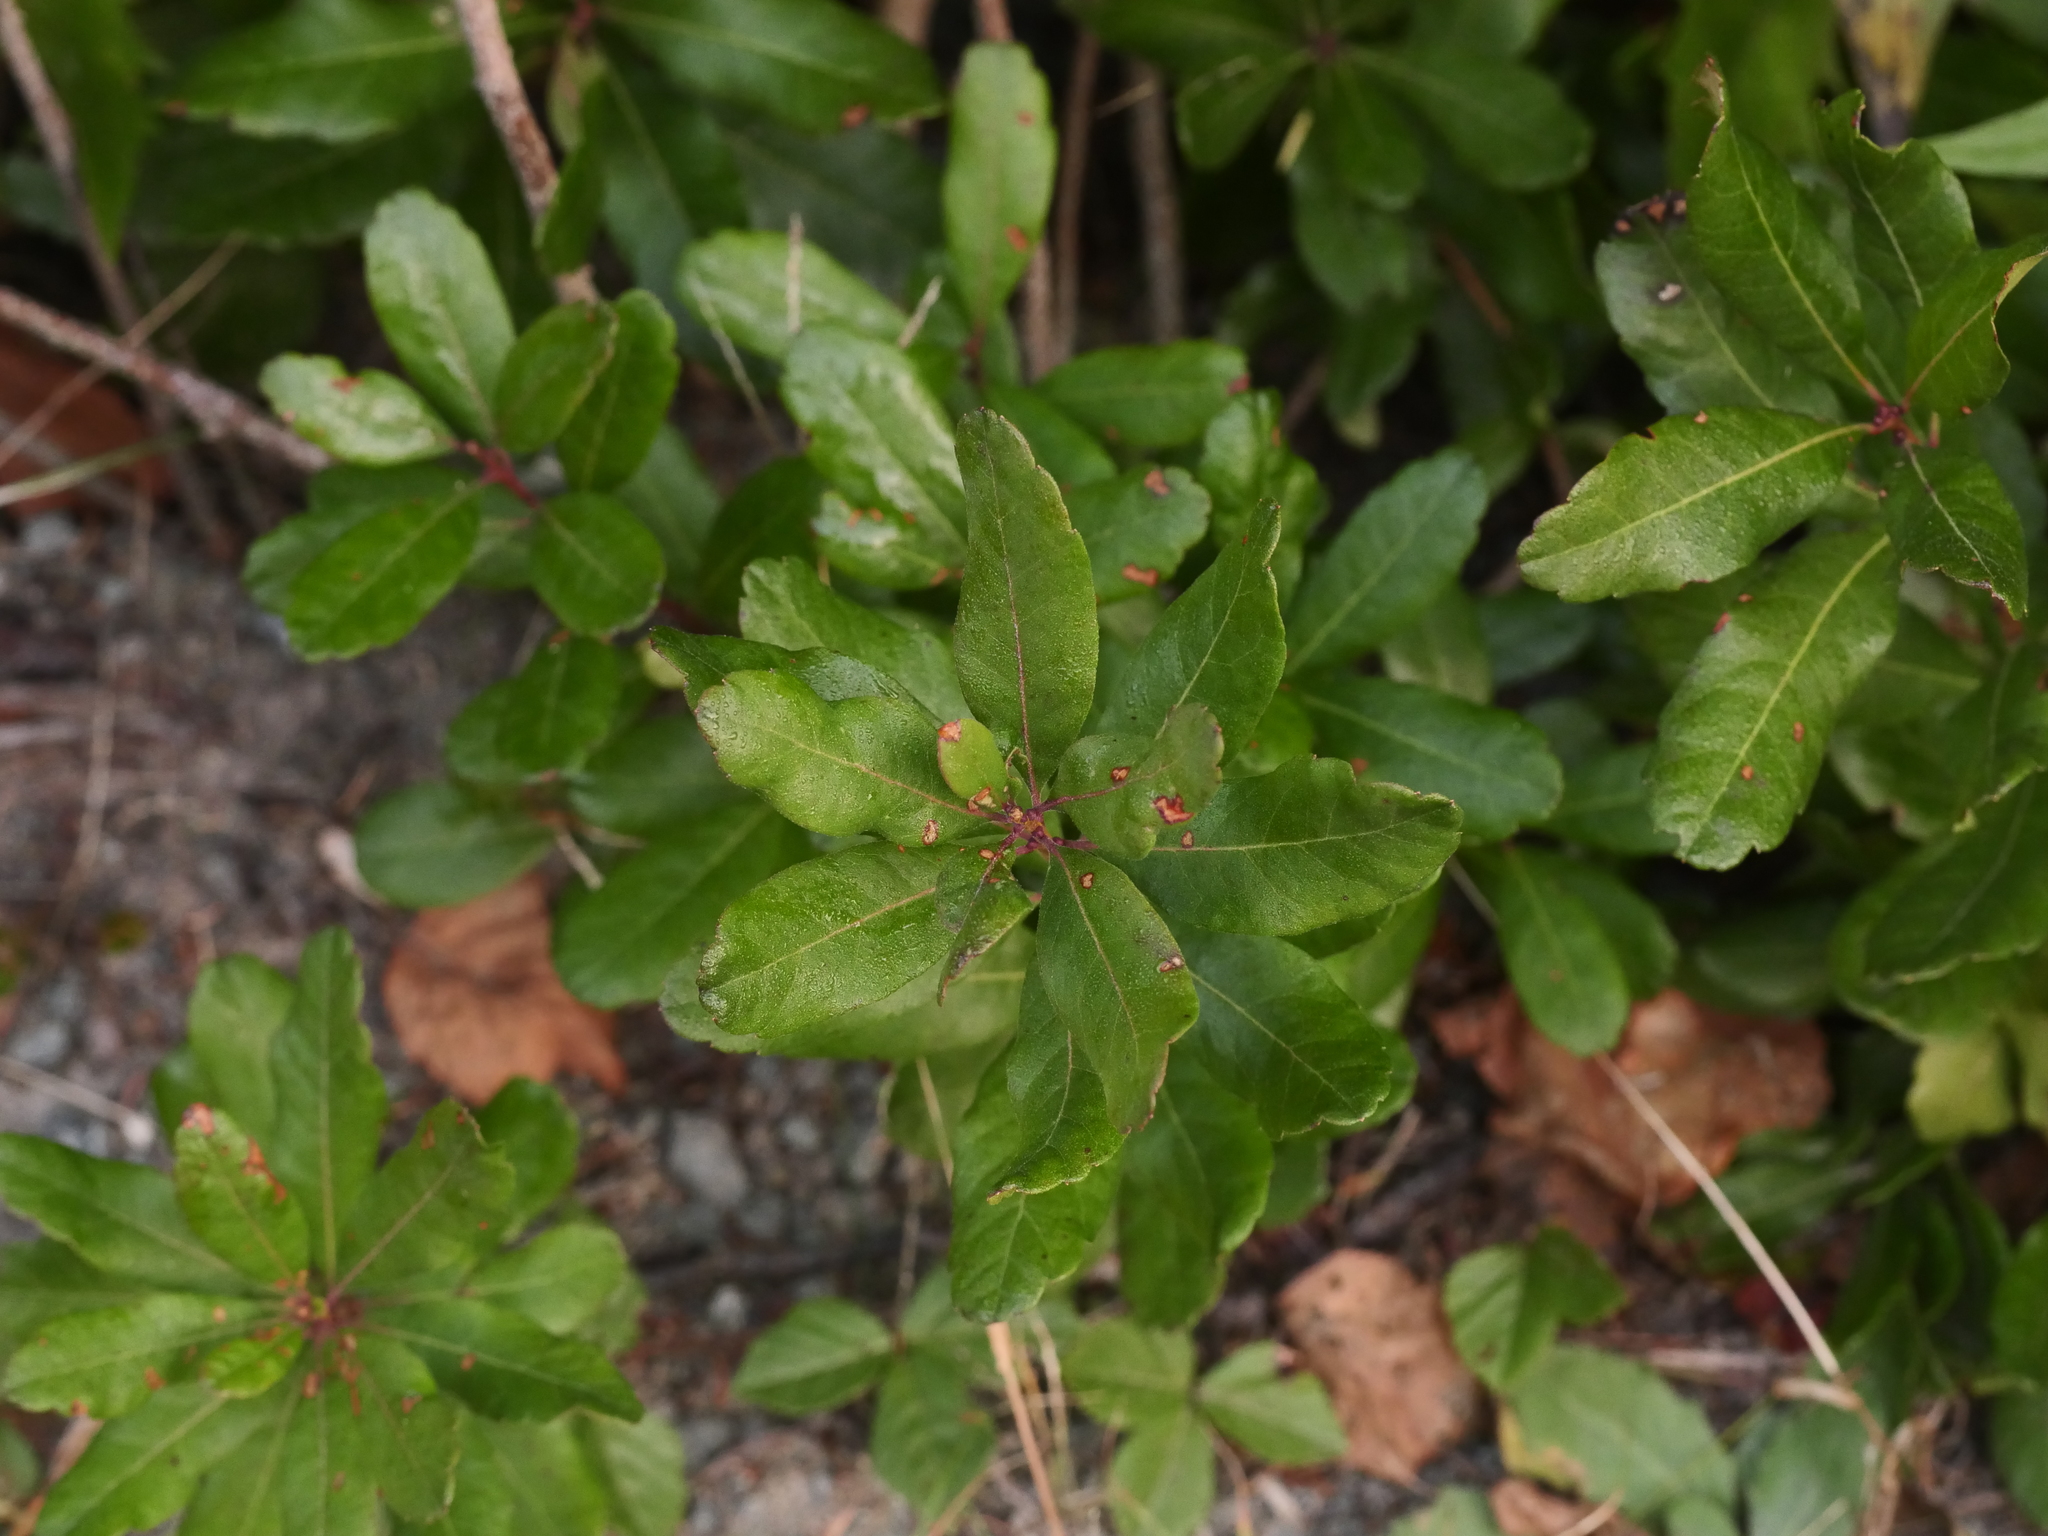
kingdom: Plantae
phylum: Tracheophyta
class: Magnoliopsida
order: Fagales
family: Myricaceae
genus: Morella
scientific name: Morella pensylvanica
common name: Northern bayberry
